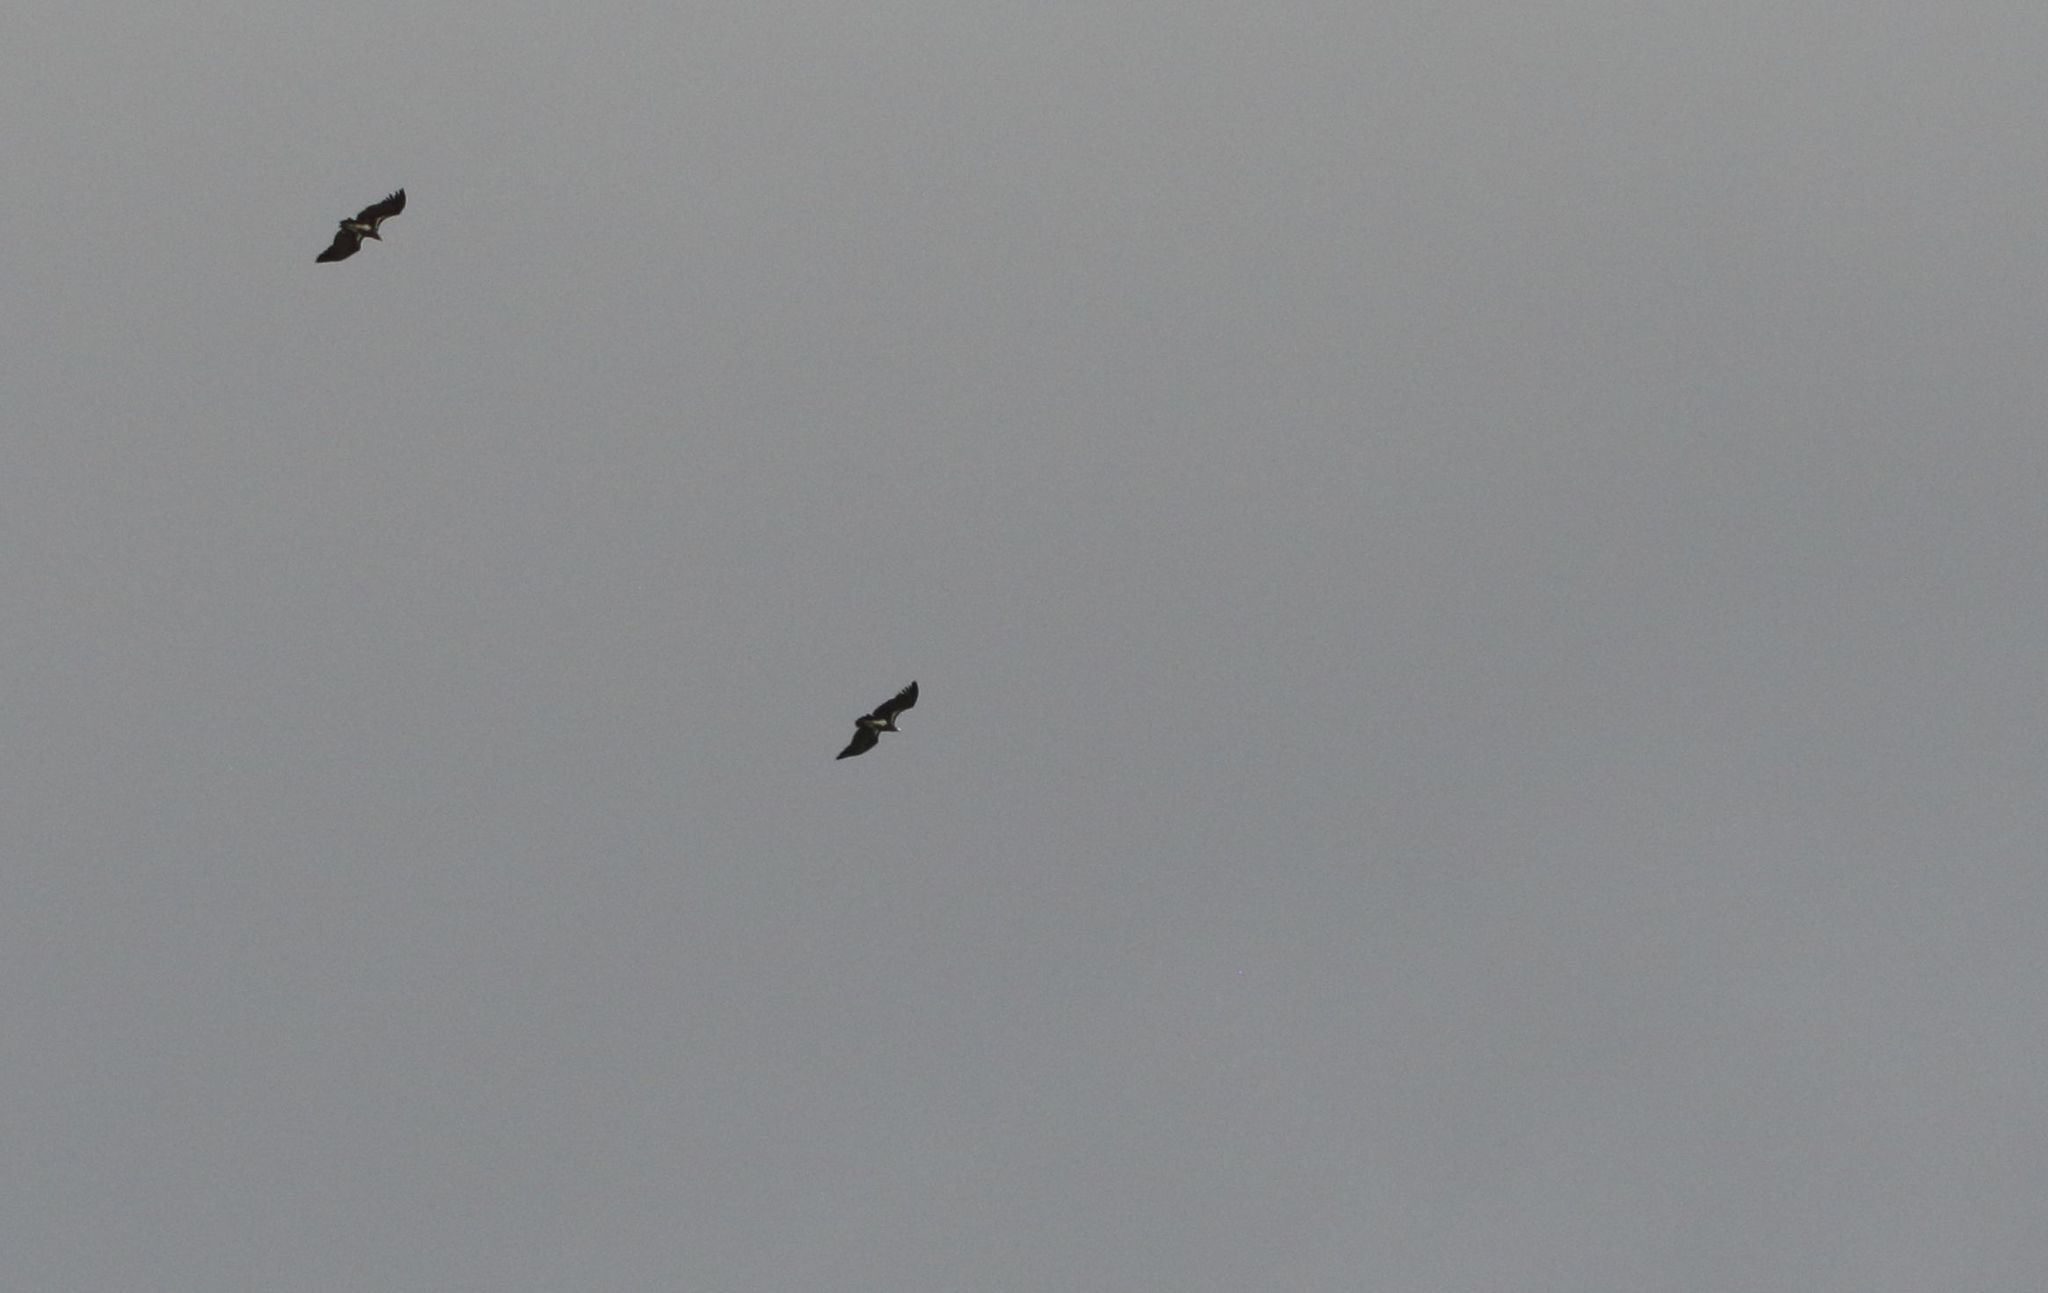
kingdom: Animalia
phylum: Chordata
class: Aves
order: Accipitriformes
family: Accipitridae
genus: Torgos
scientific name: Torgos tracheliotos
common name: Lappet-faced vulture
